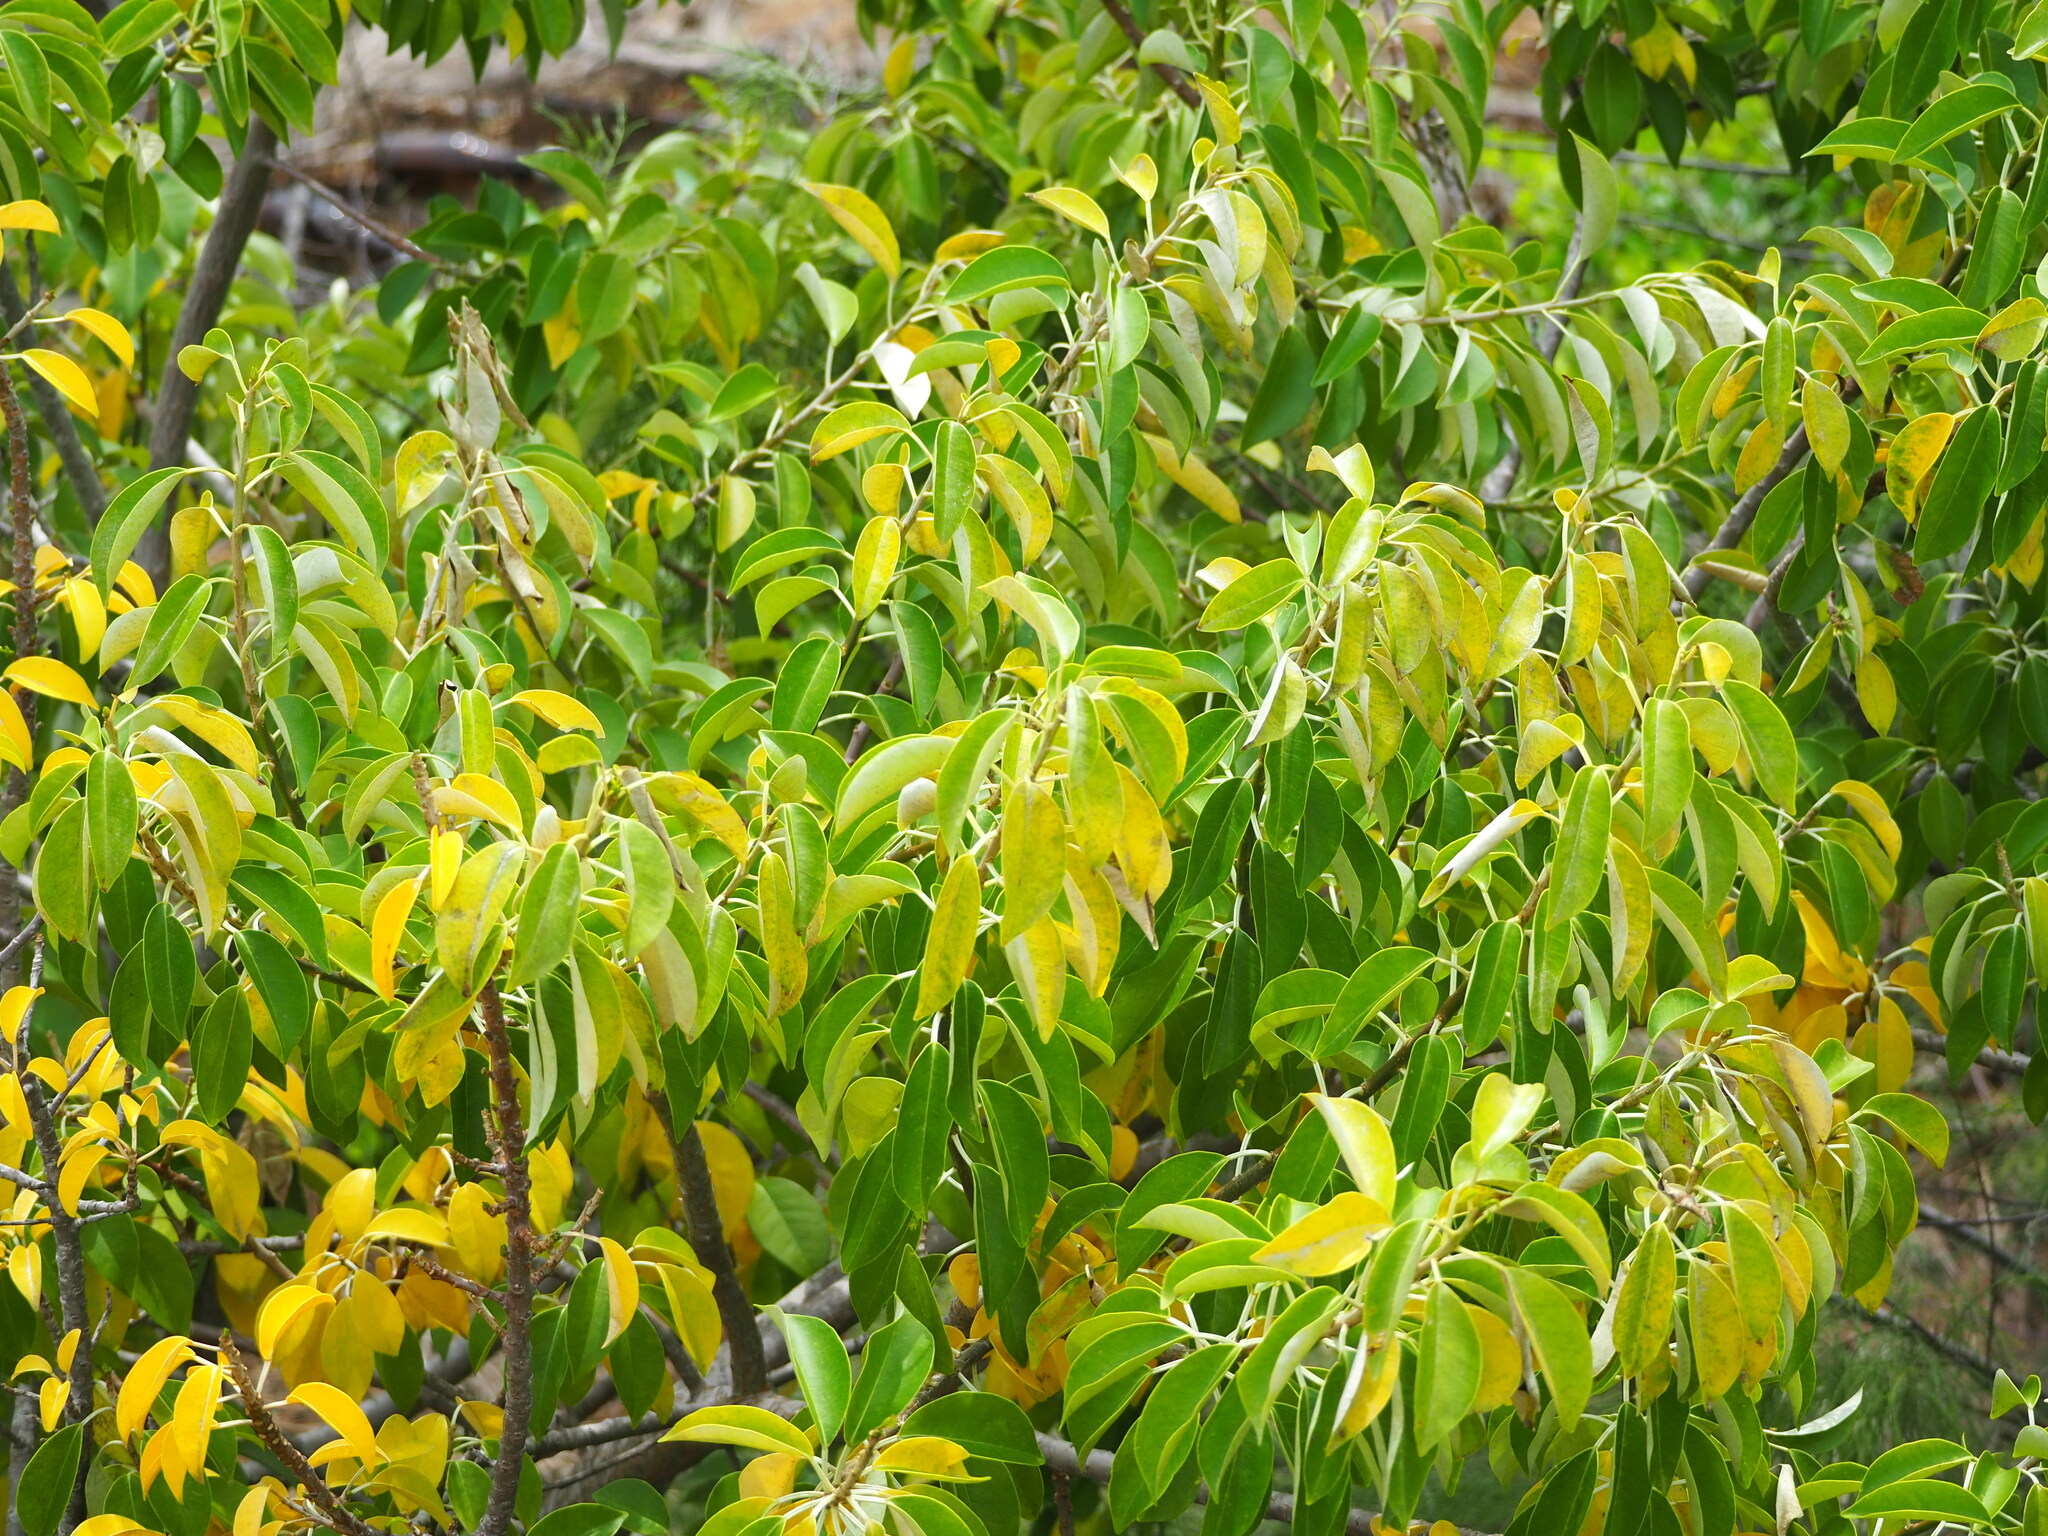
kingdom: Plantae
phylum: Tracheophyta
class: Magnoliopsida
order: Malpighiales
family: Euphorbiaceae
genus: Excoecaria
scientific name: Excoecaria agallocha
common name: River poisontree
